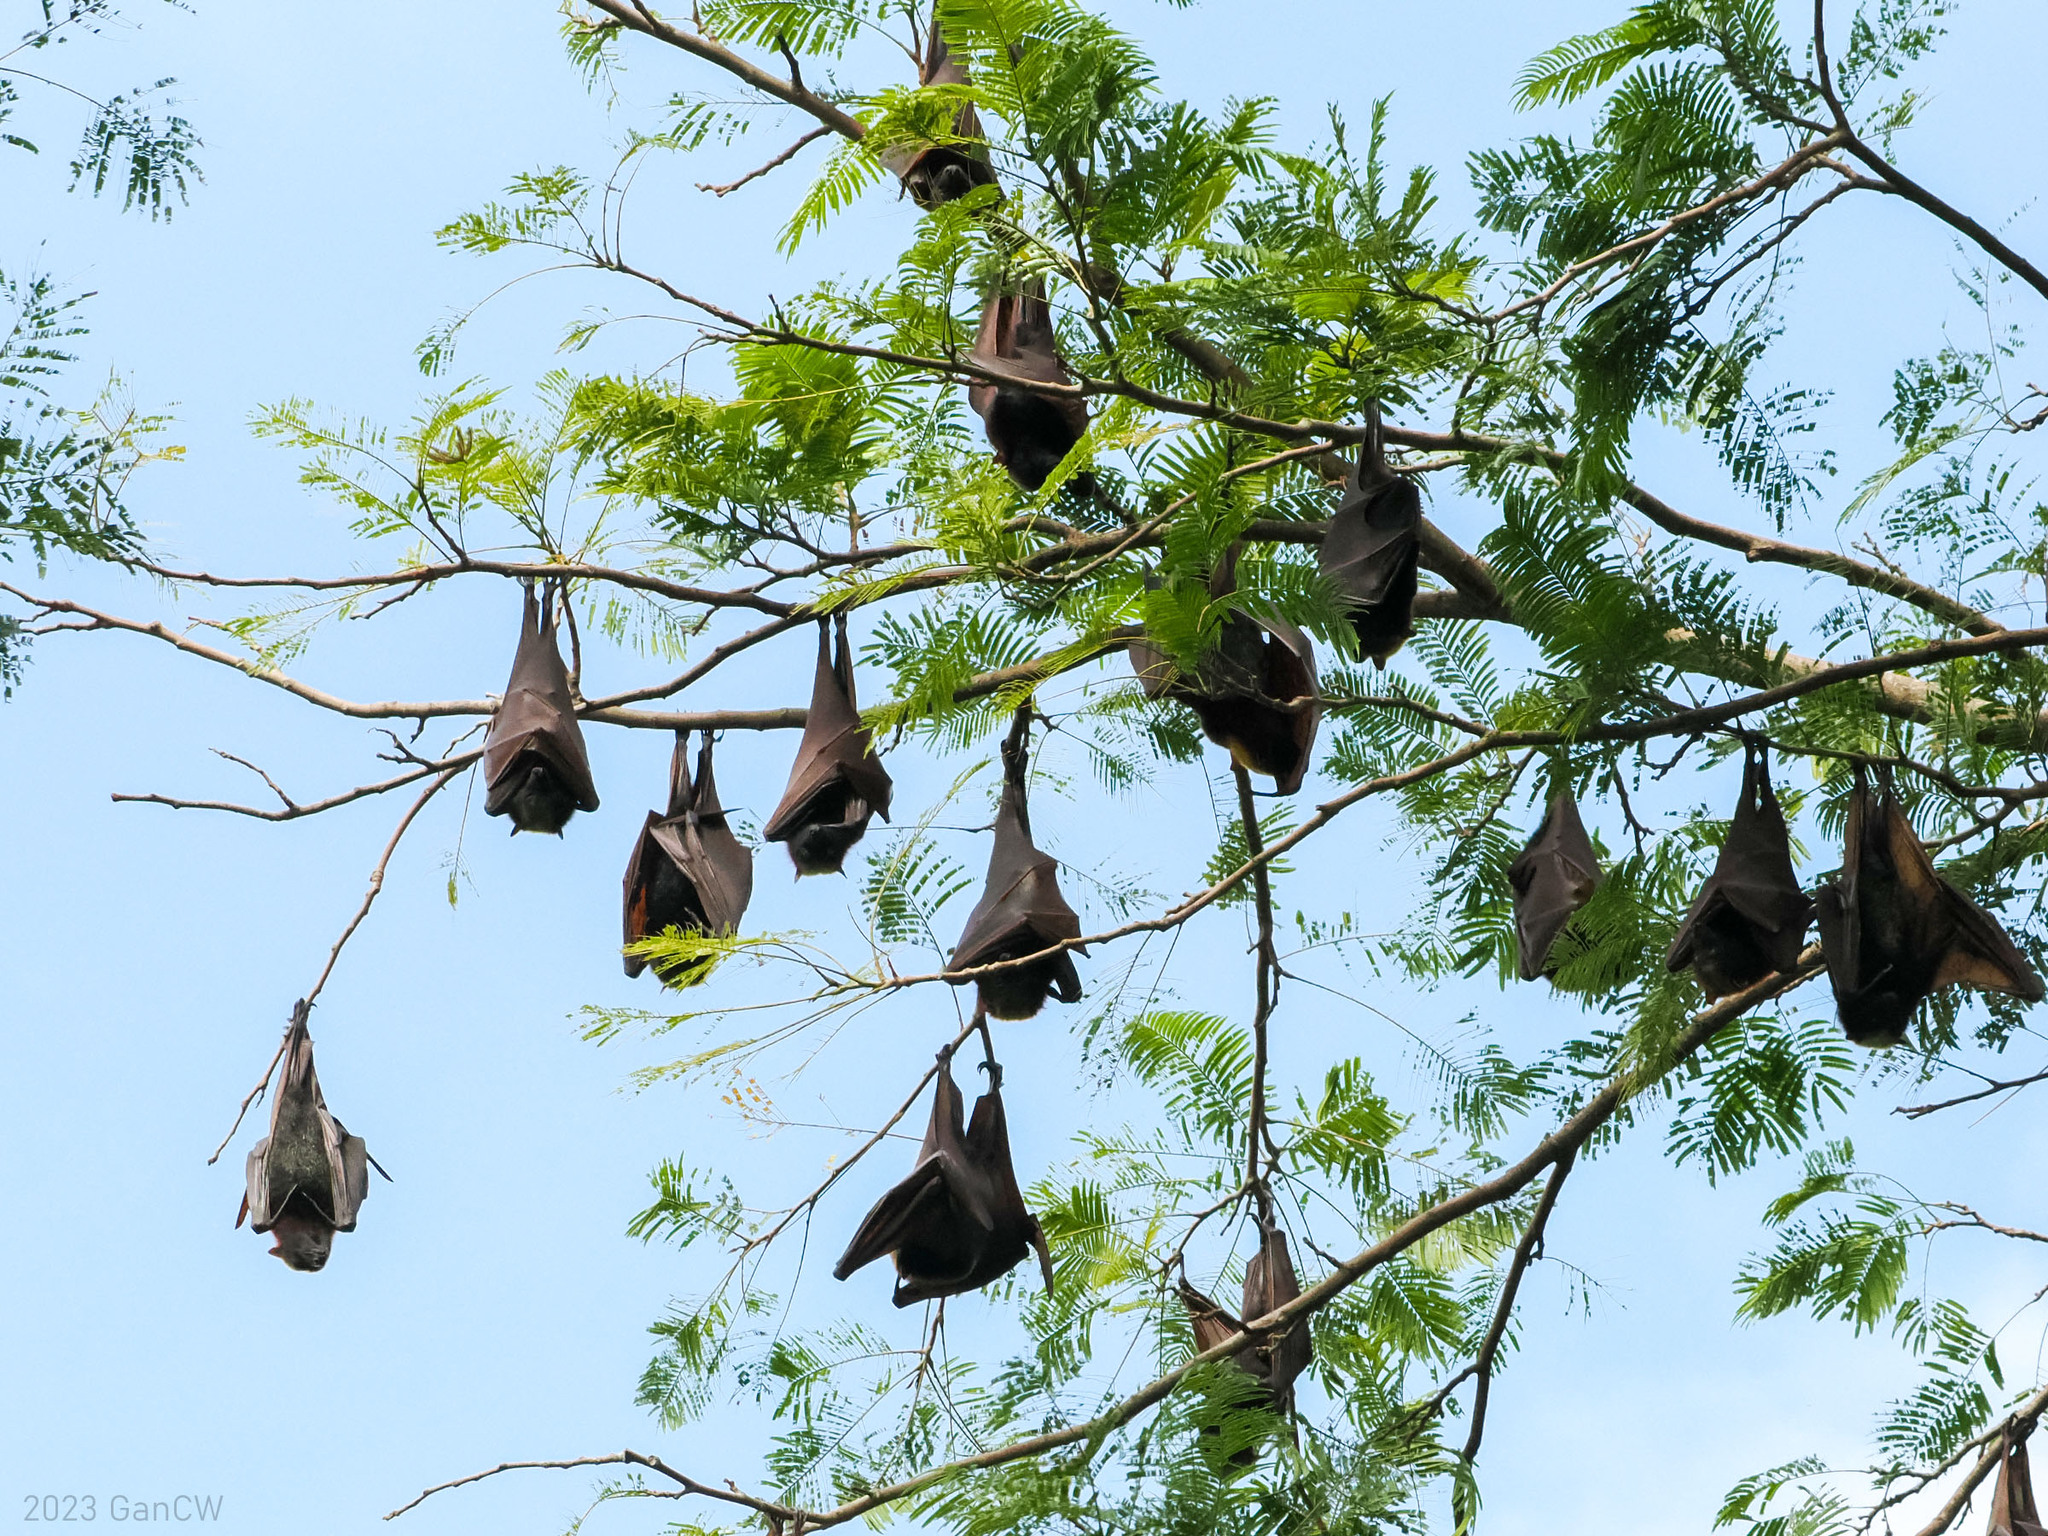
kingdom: Animalia
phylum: Chordata
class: Mammalia
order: Chiroptera
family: Pteropodidae
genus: Pteropus
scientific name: Pteropus vampyrus
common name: Large flying fox
